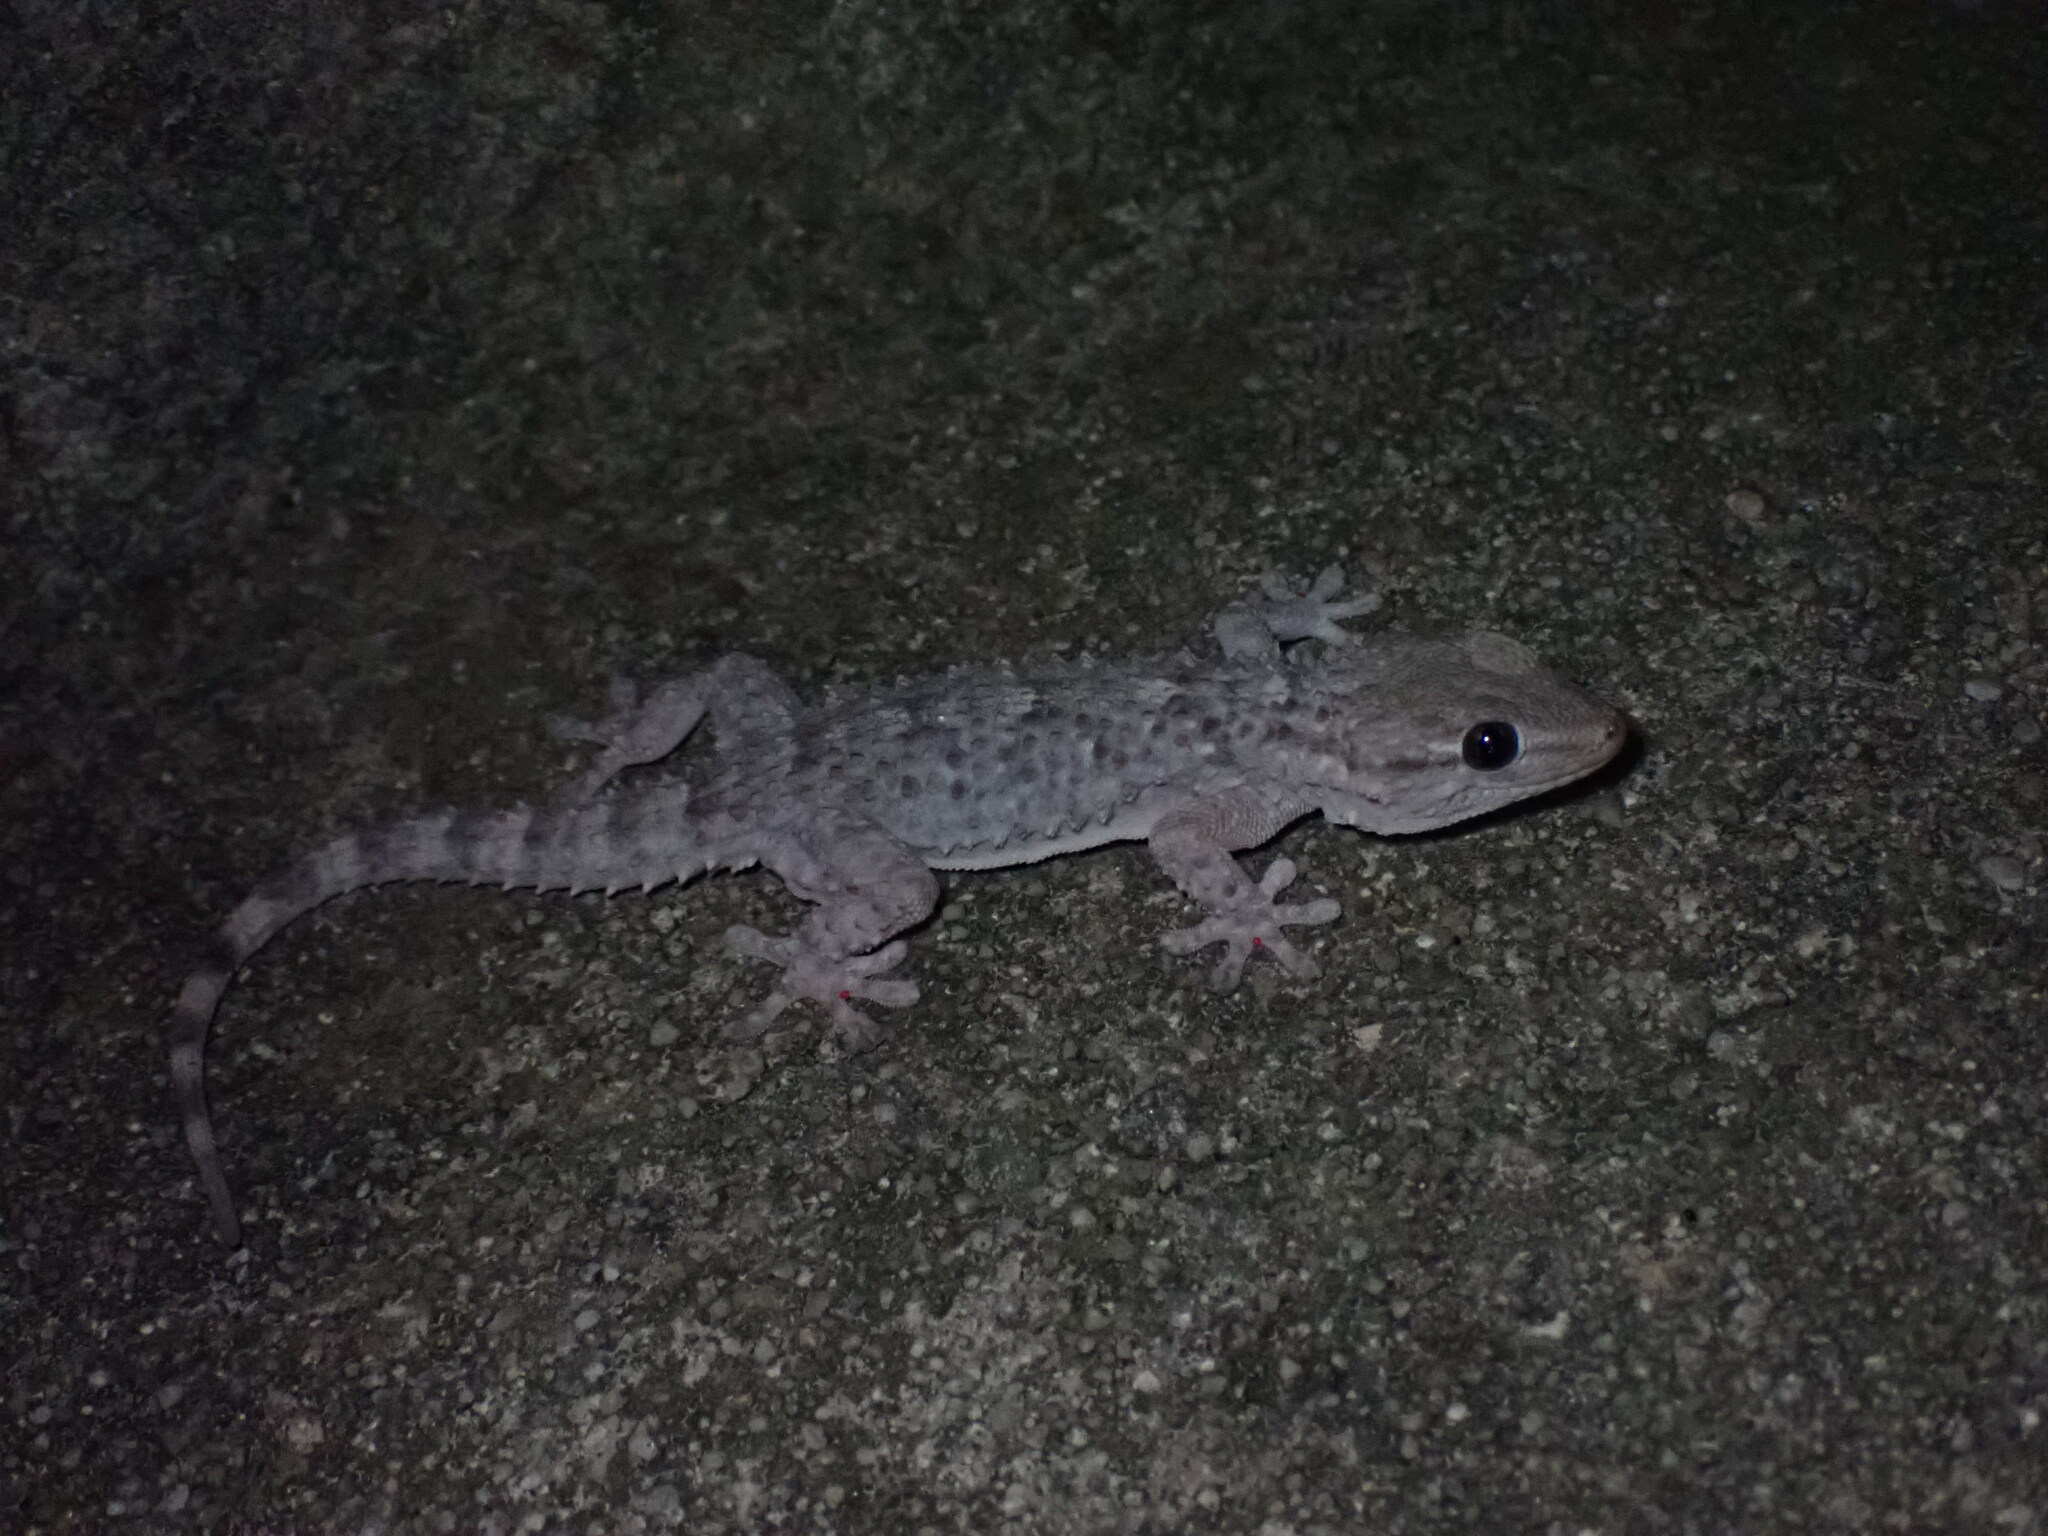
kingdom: Animalia
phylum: Chordata
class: Squamata
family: Phyllodactylidae
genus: Tarentola
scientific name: Tarentola mauritanica
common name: Moorish gecko
